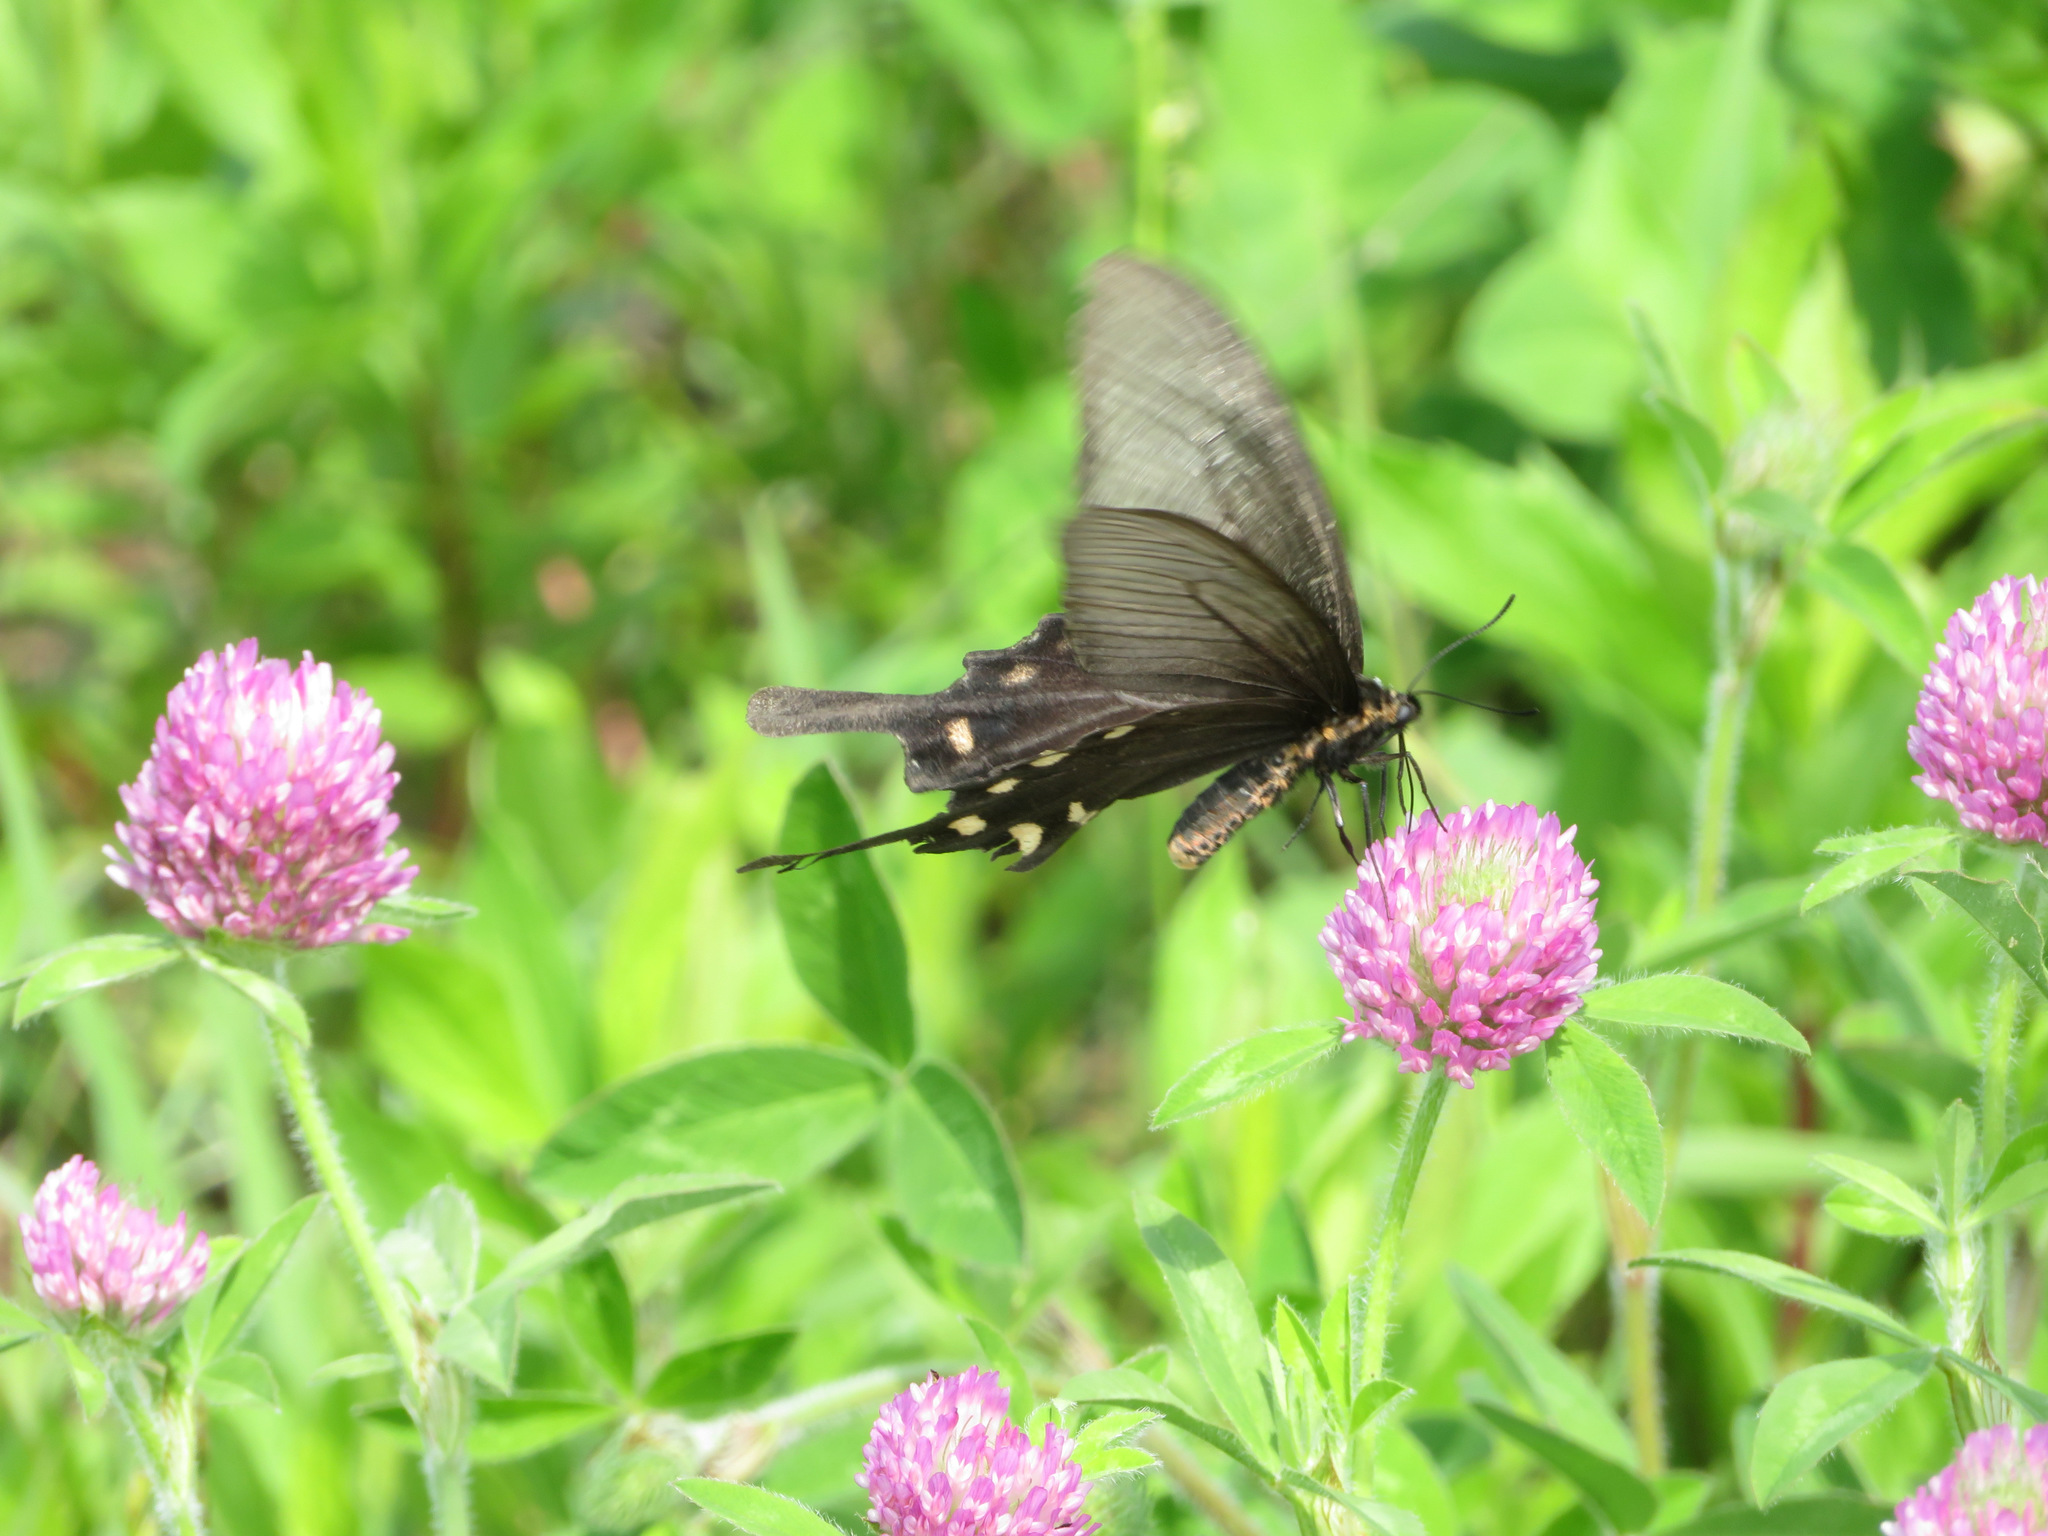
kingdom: Animalia
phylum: Arthropoda
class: Insecta
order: Lepidoptera
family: Papilionidae
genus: Byasa
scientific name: Byasa alcinous
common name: Chinese windmill
